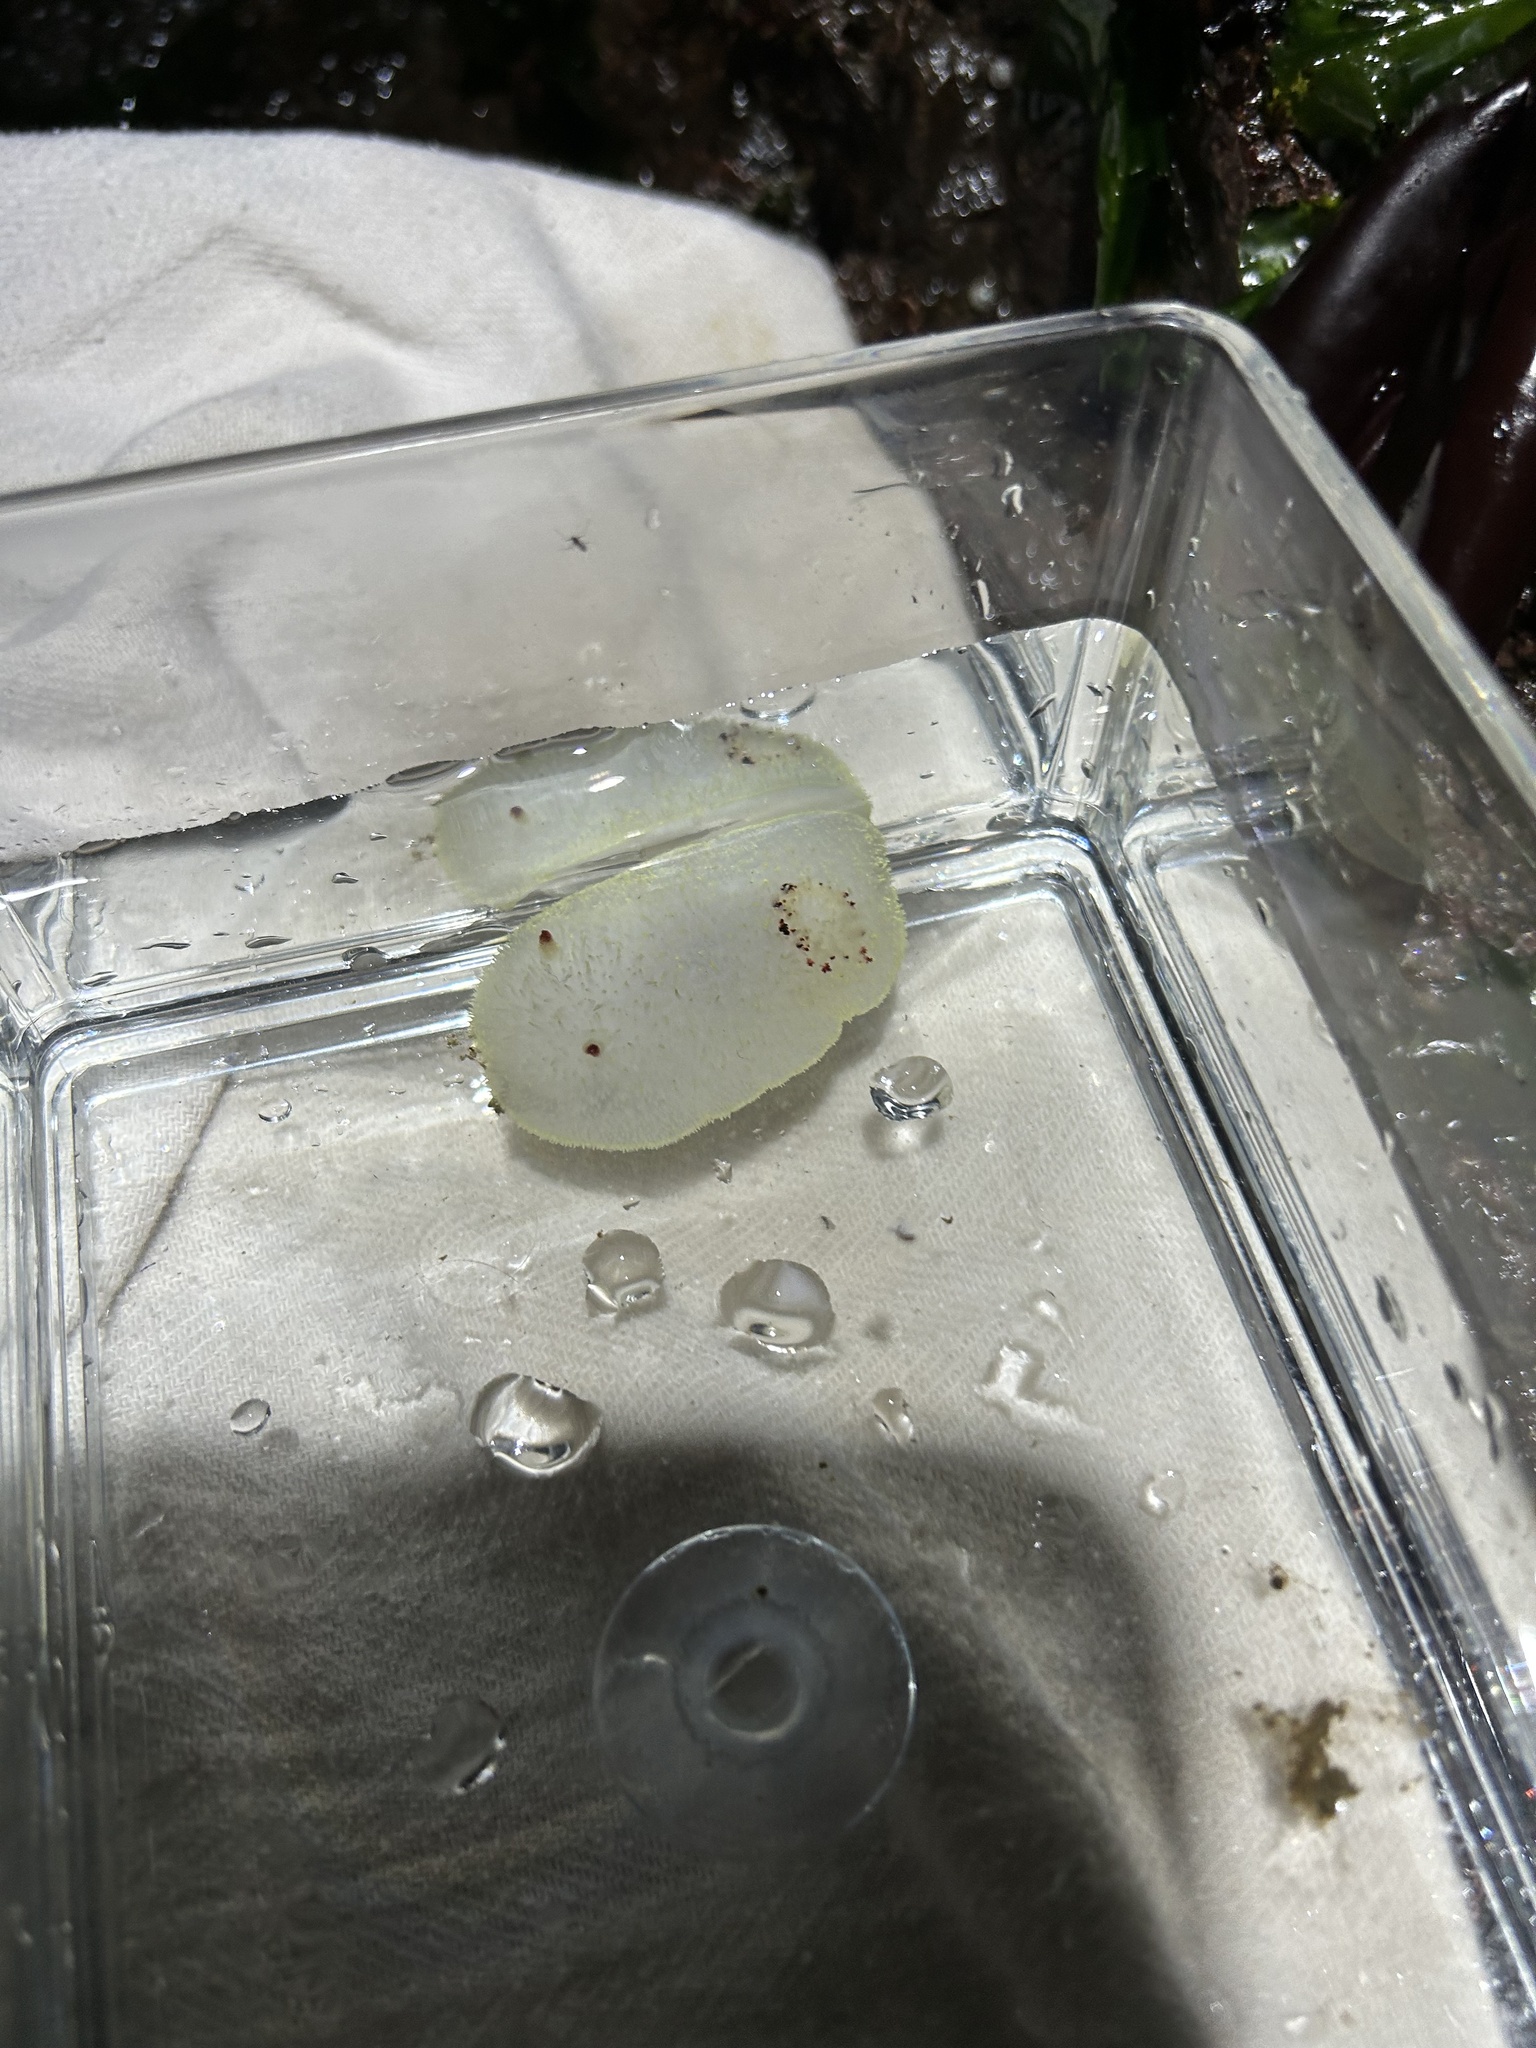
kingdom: Animalia
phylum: Mollusca
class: Gastropoda
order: Nudibranchia
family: Onchidorididae
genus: Acanthodoris
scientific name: Acanthodoris nanaimoensis
